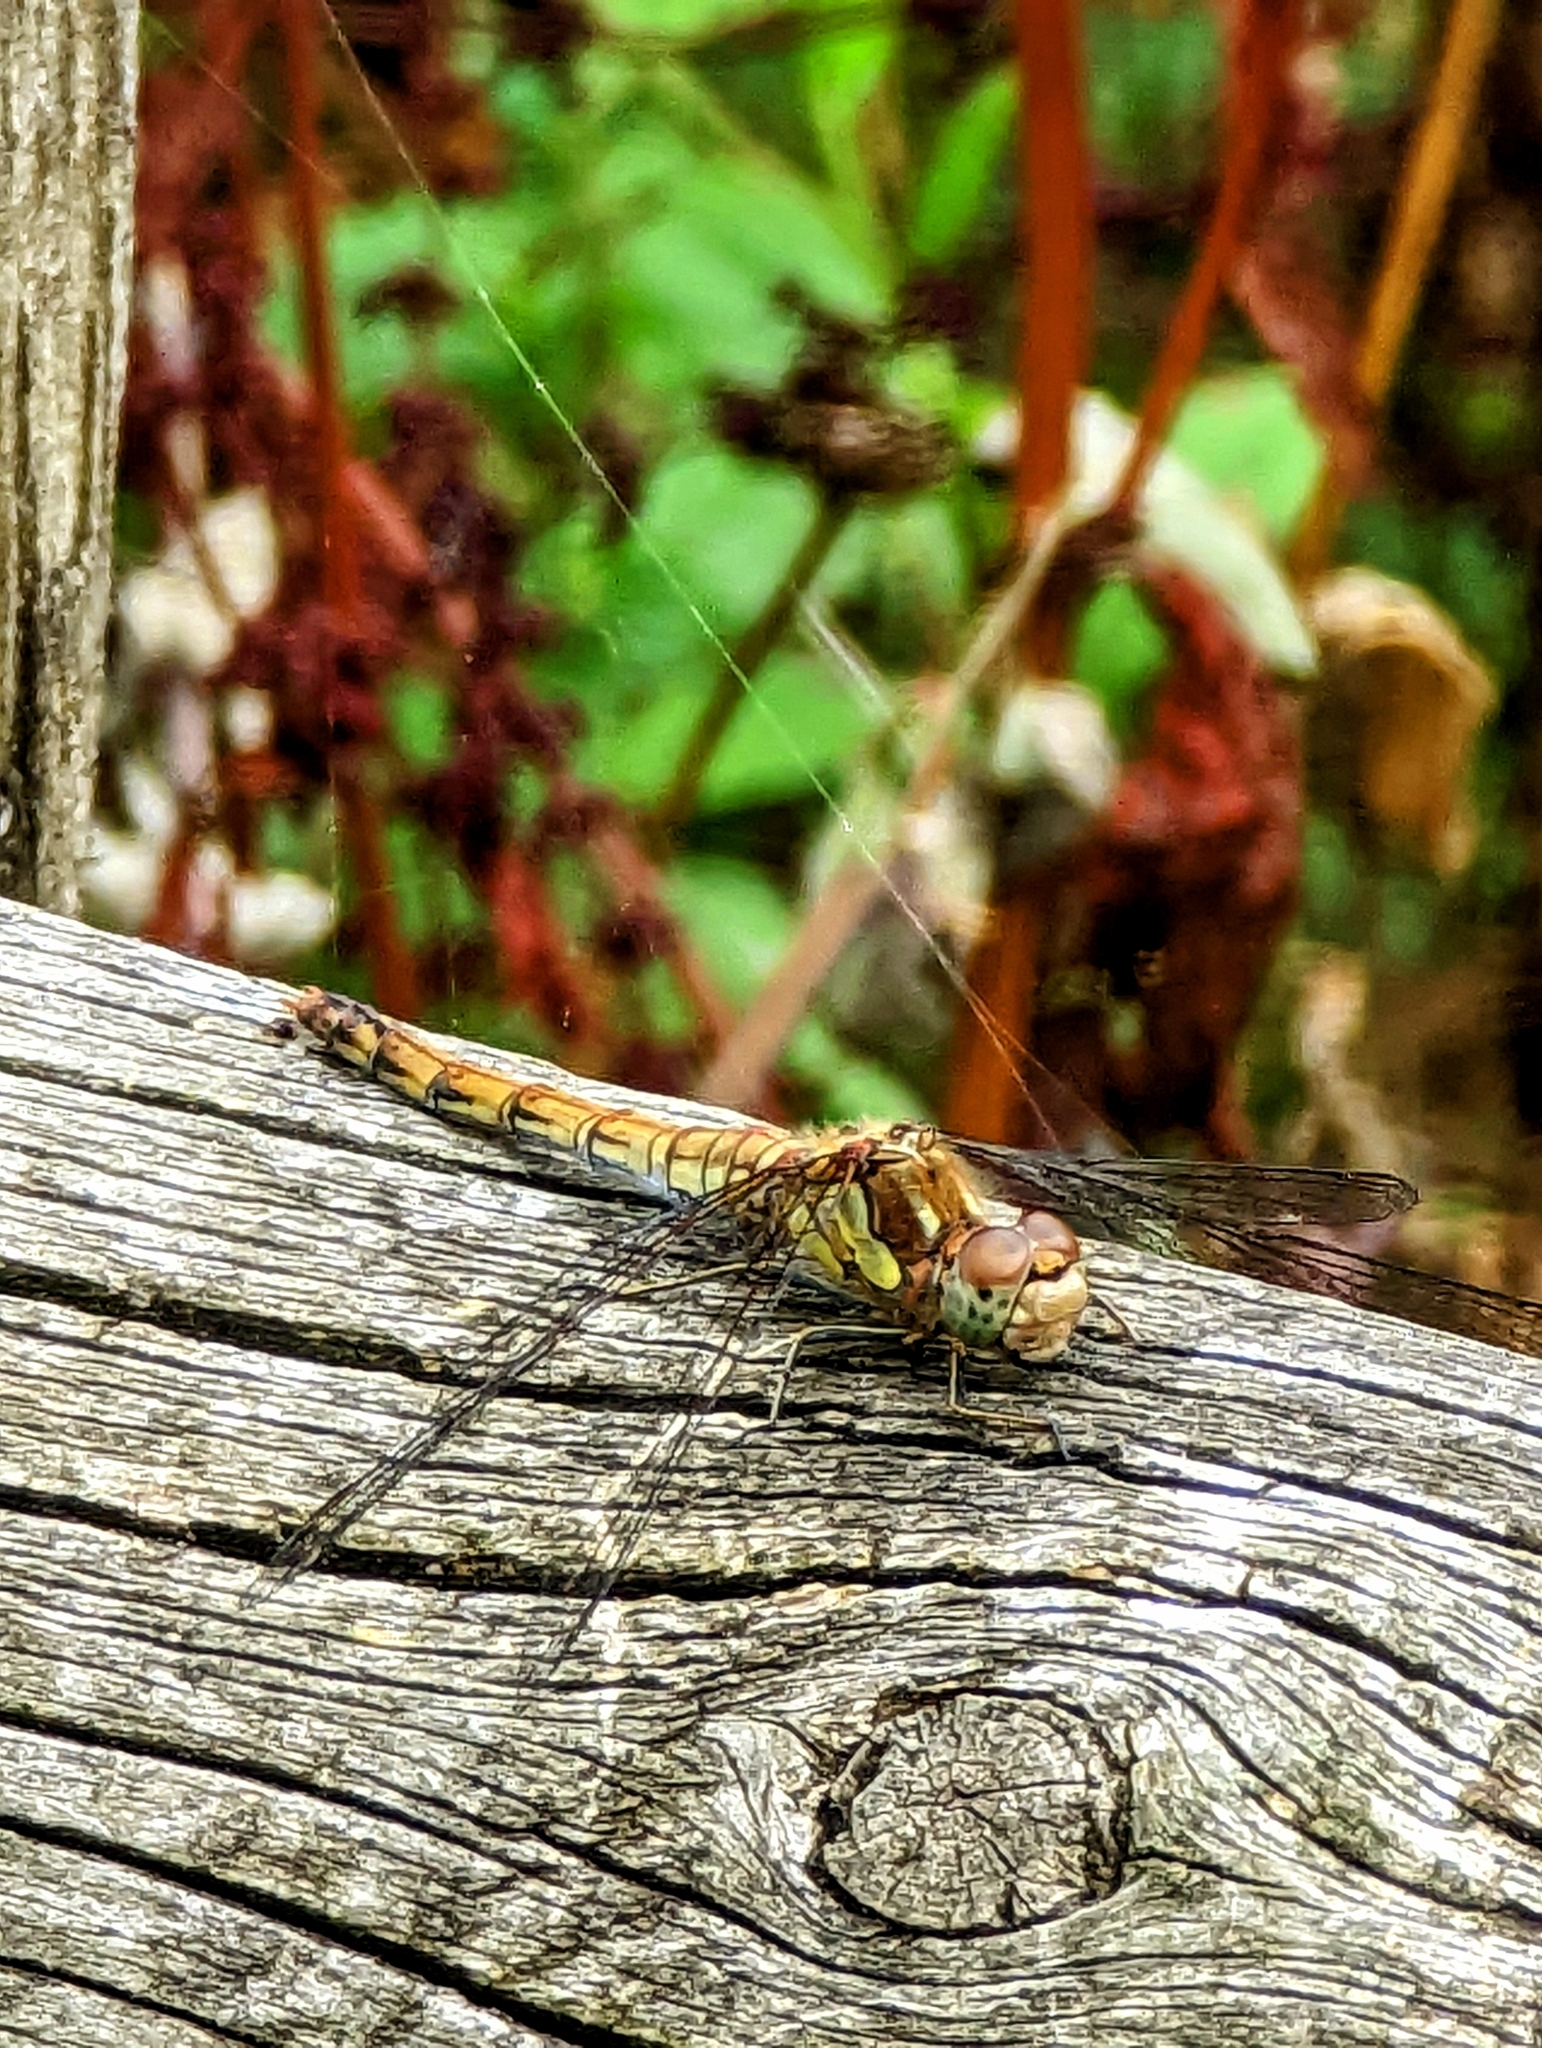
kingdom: Animalia
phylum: Arthropoda
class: Insecta
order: Odonata
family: Libellulidae
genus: Sympetrum
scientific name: Sympetrum striolatum
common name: Common darter
